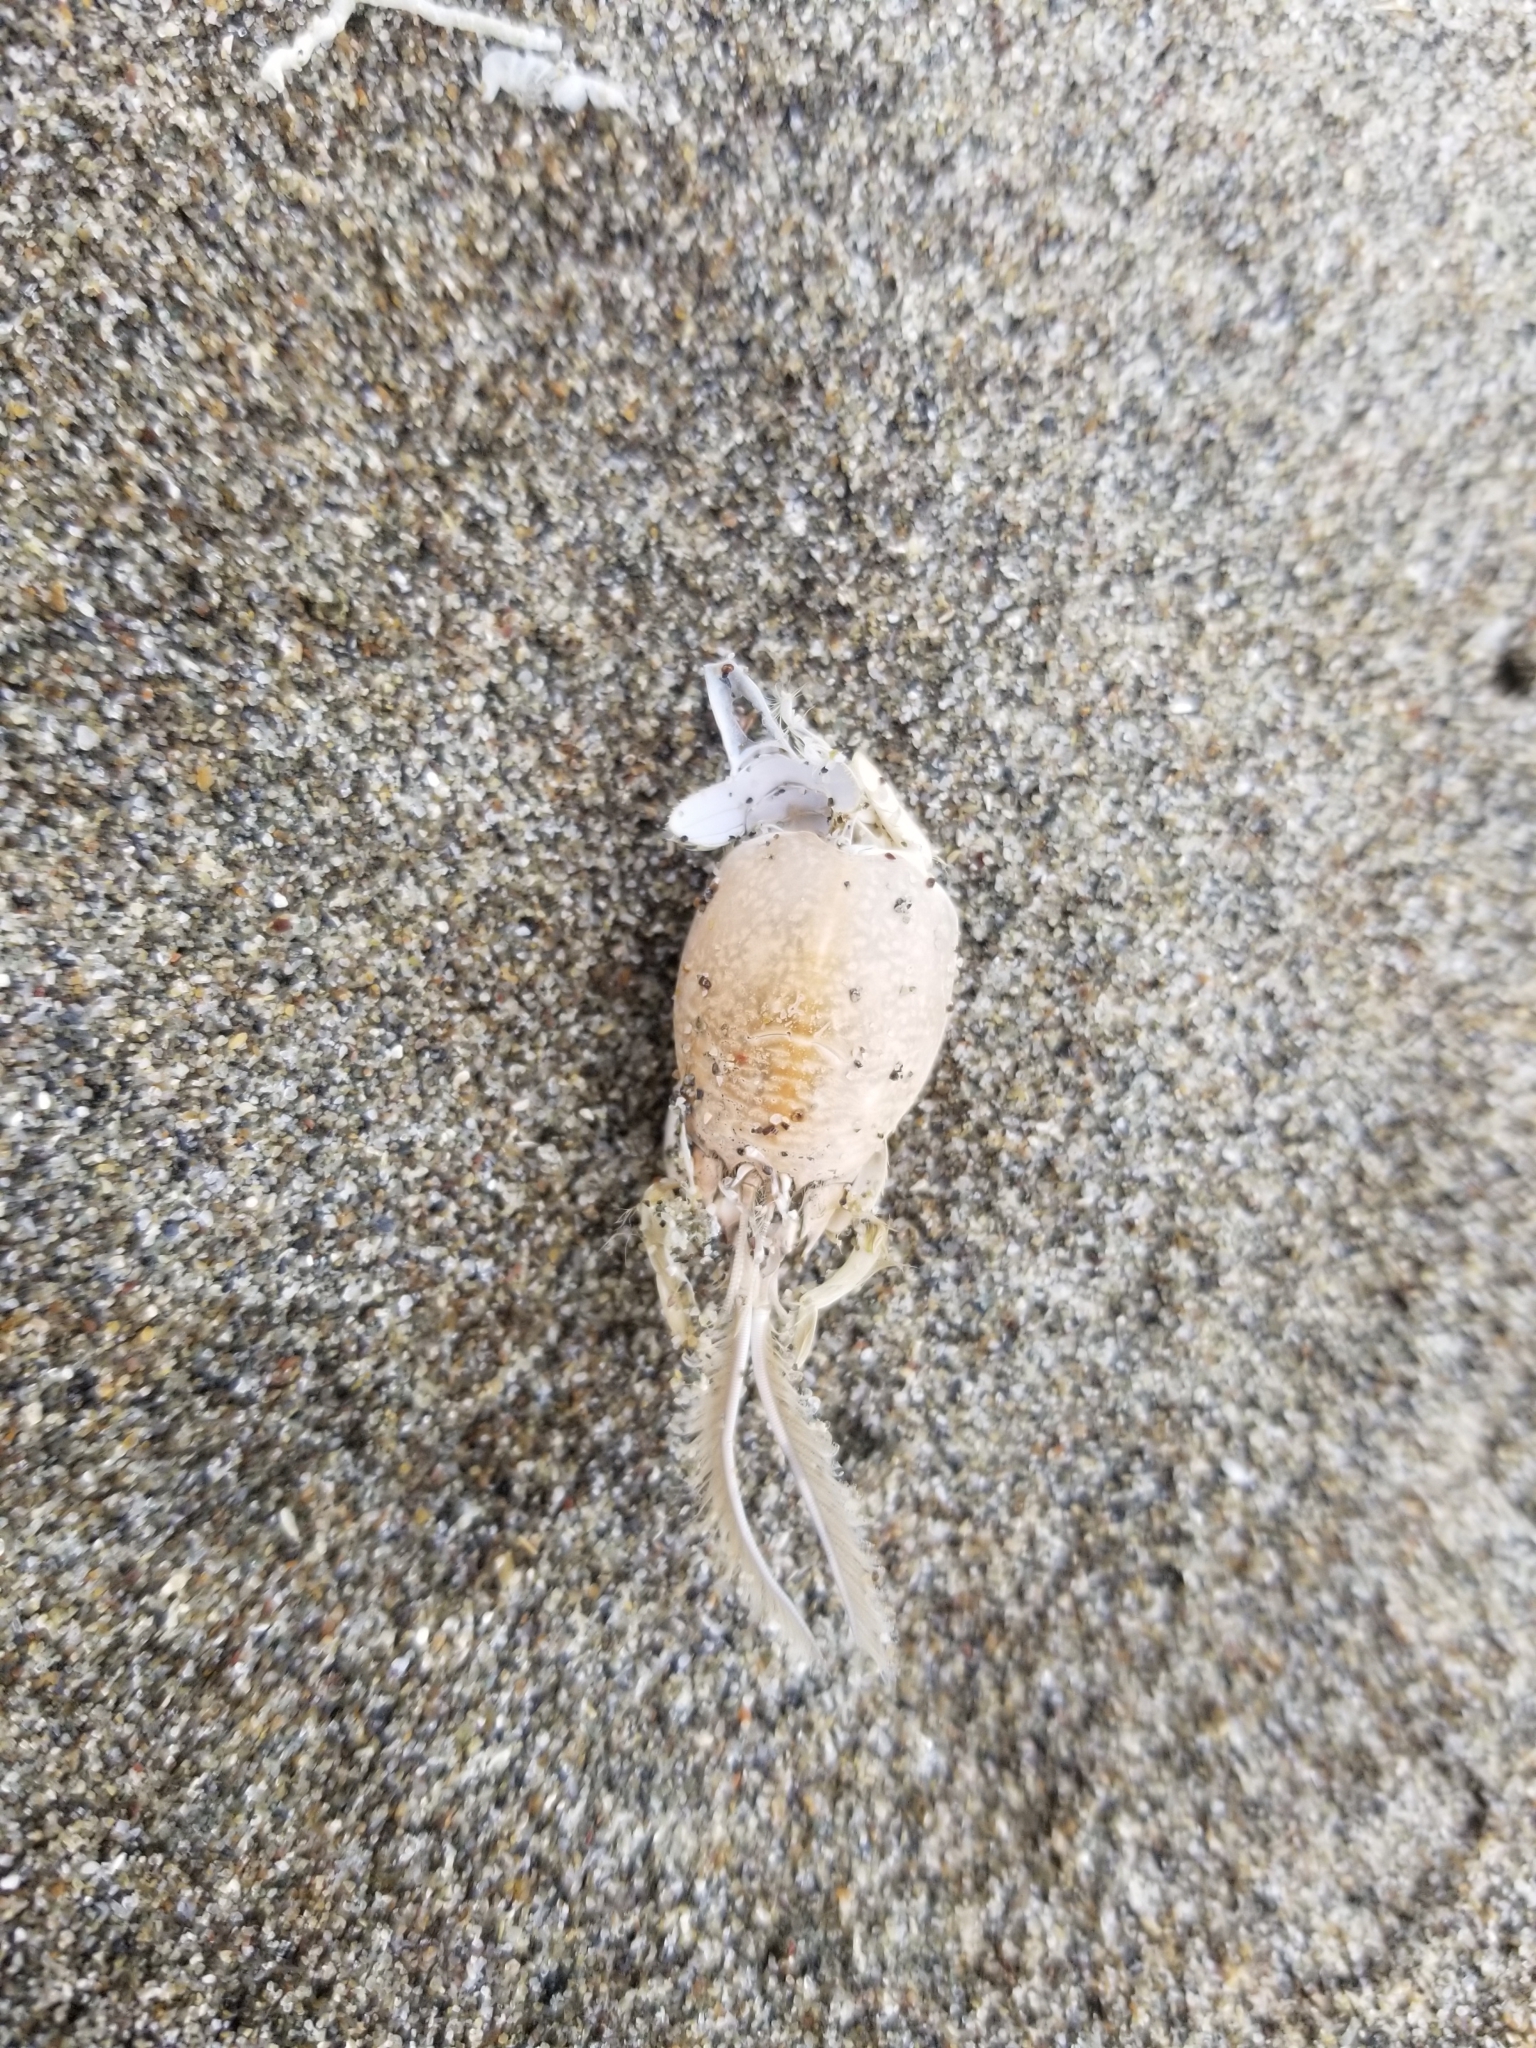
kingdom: Animalia
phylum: Arthropoda
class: Malacostraca
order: Decapoda
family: Hippidae
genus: Emerita
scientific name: Emerita analoga
